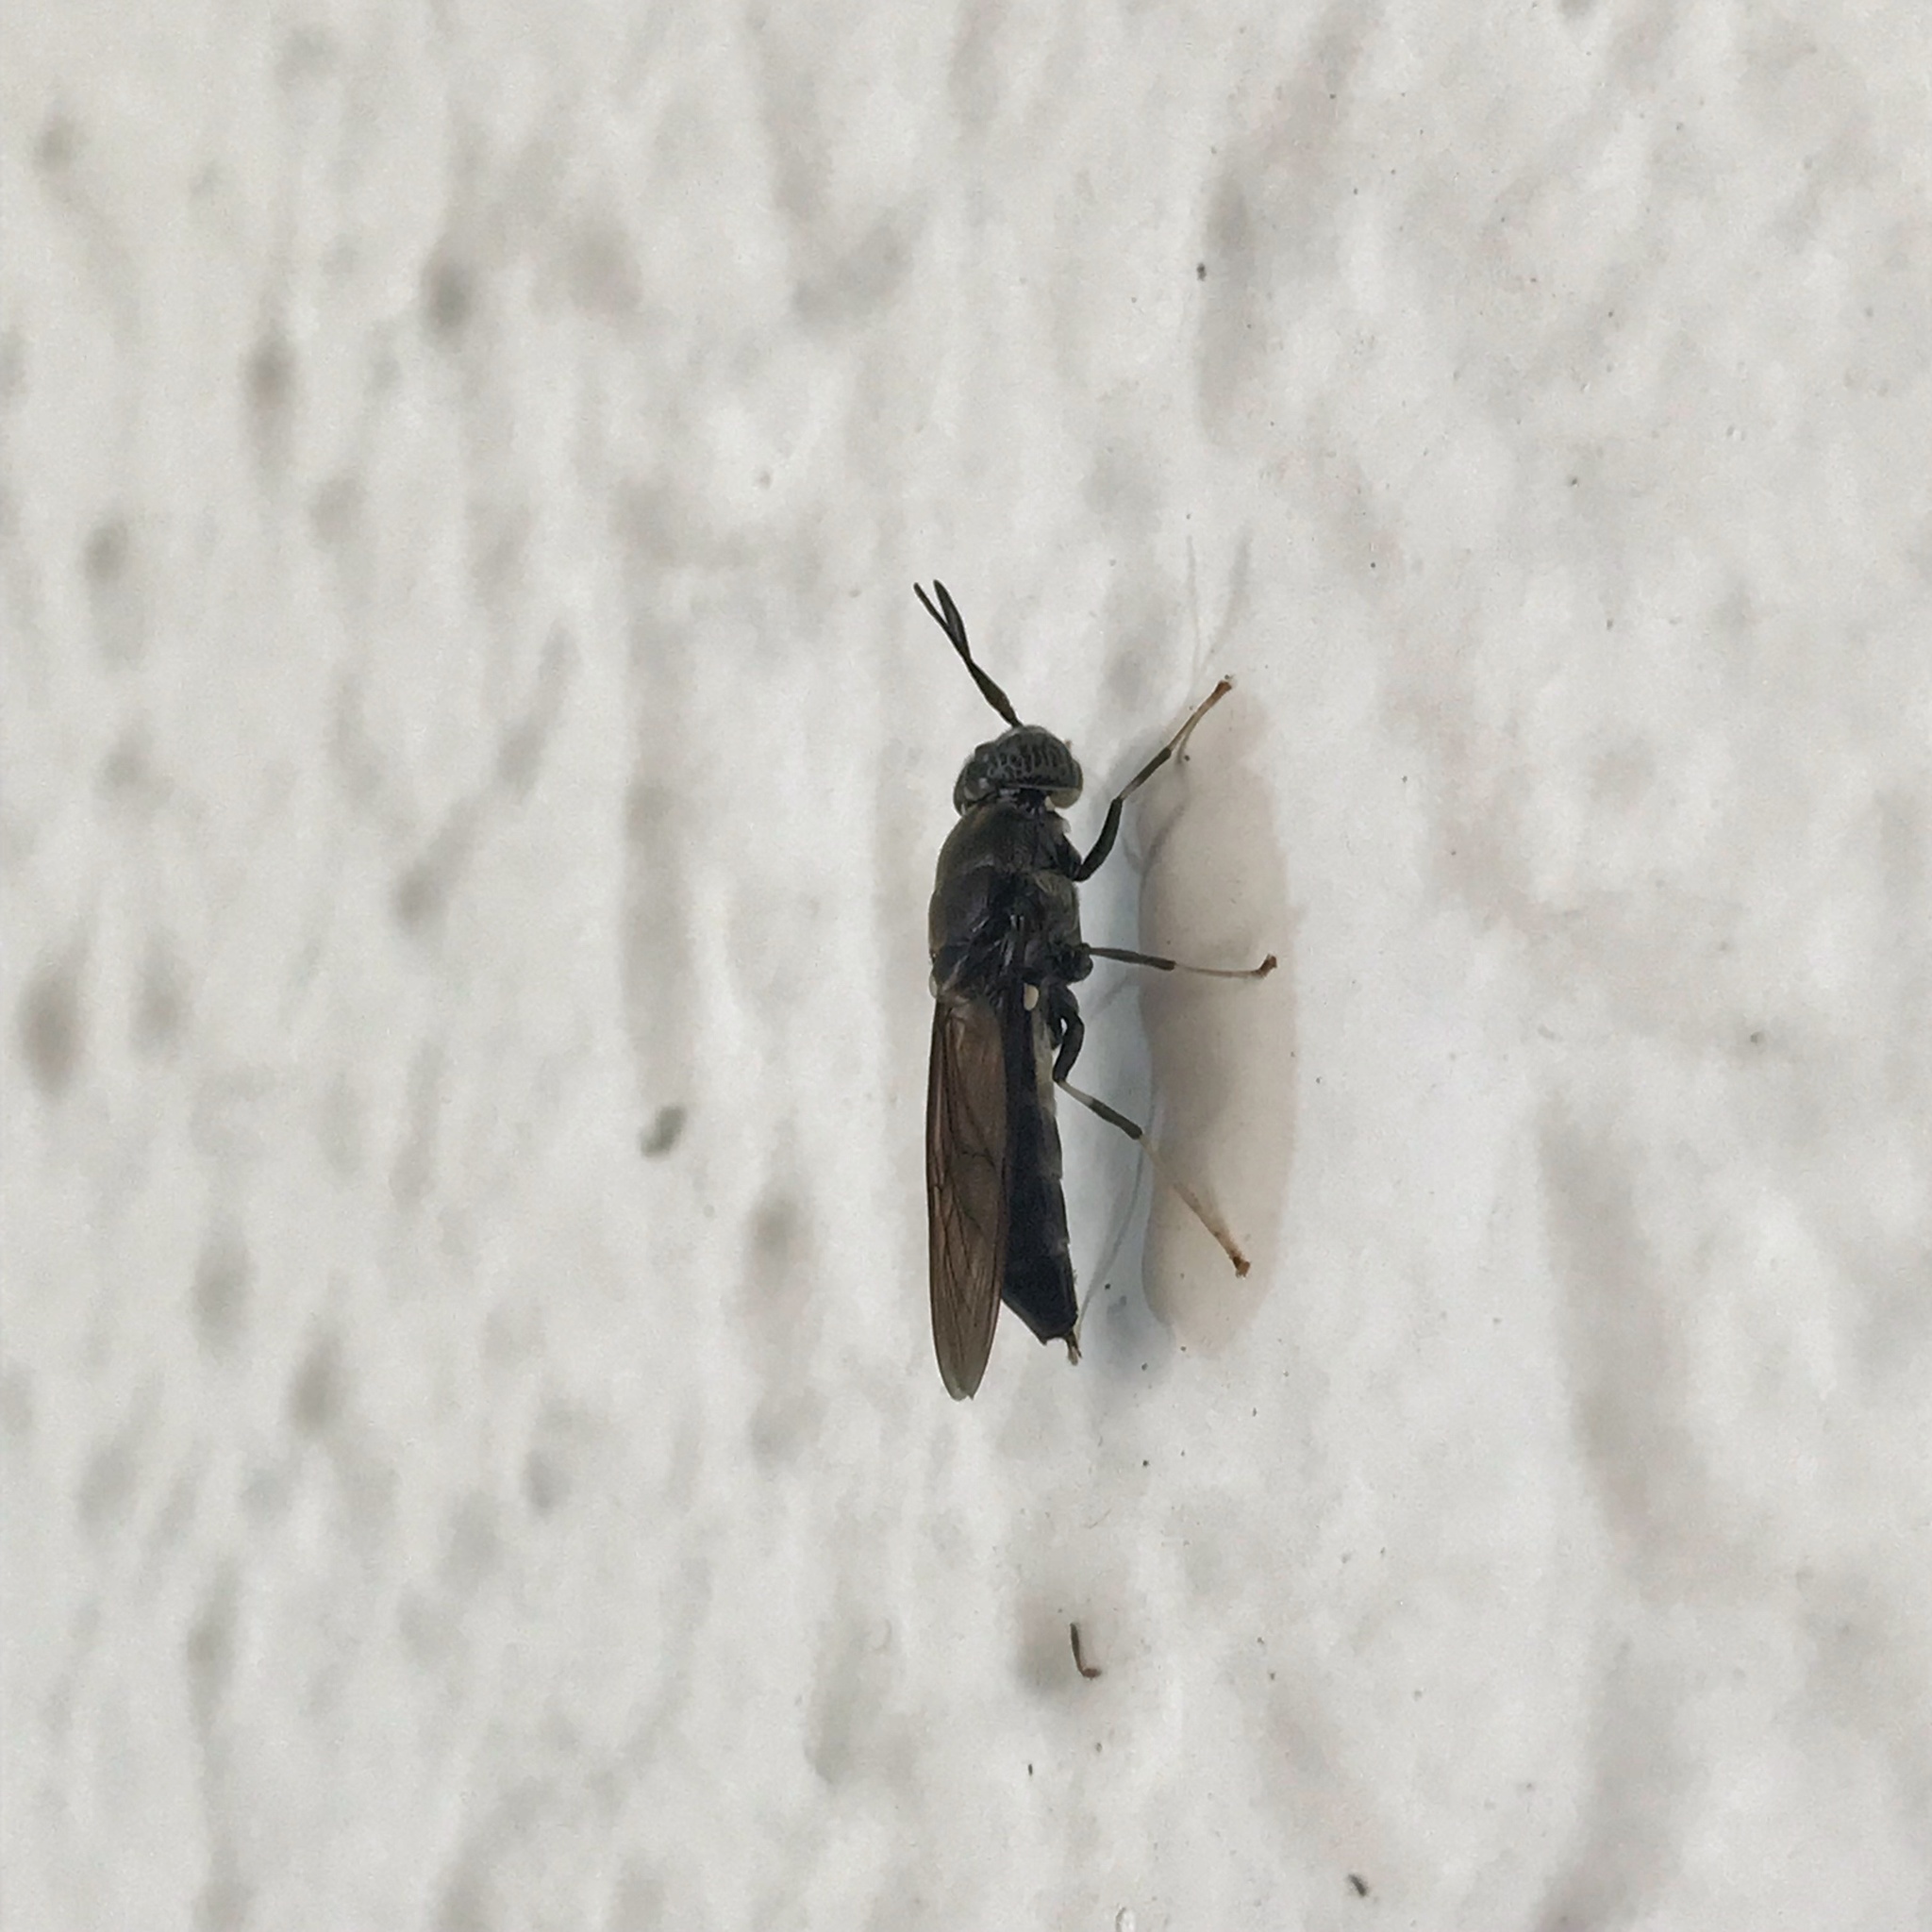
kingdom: Animalia
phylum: Arthropoda
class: Insecta
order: Diptera
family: Stratiomyidae
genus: Hermetia
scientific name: Hermetia illucens
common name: Black soldier fly
